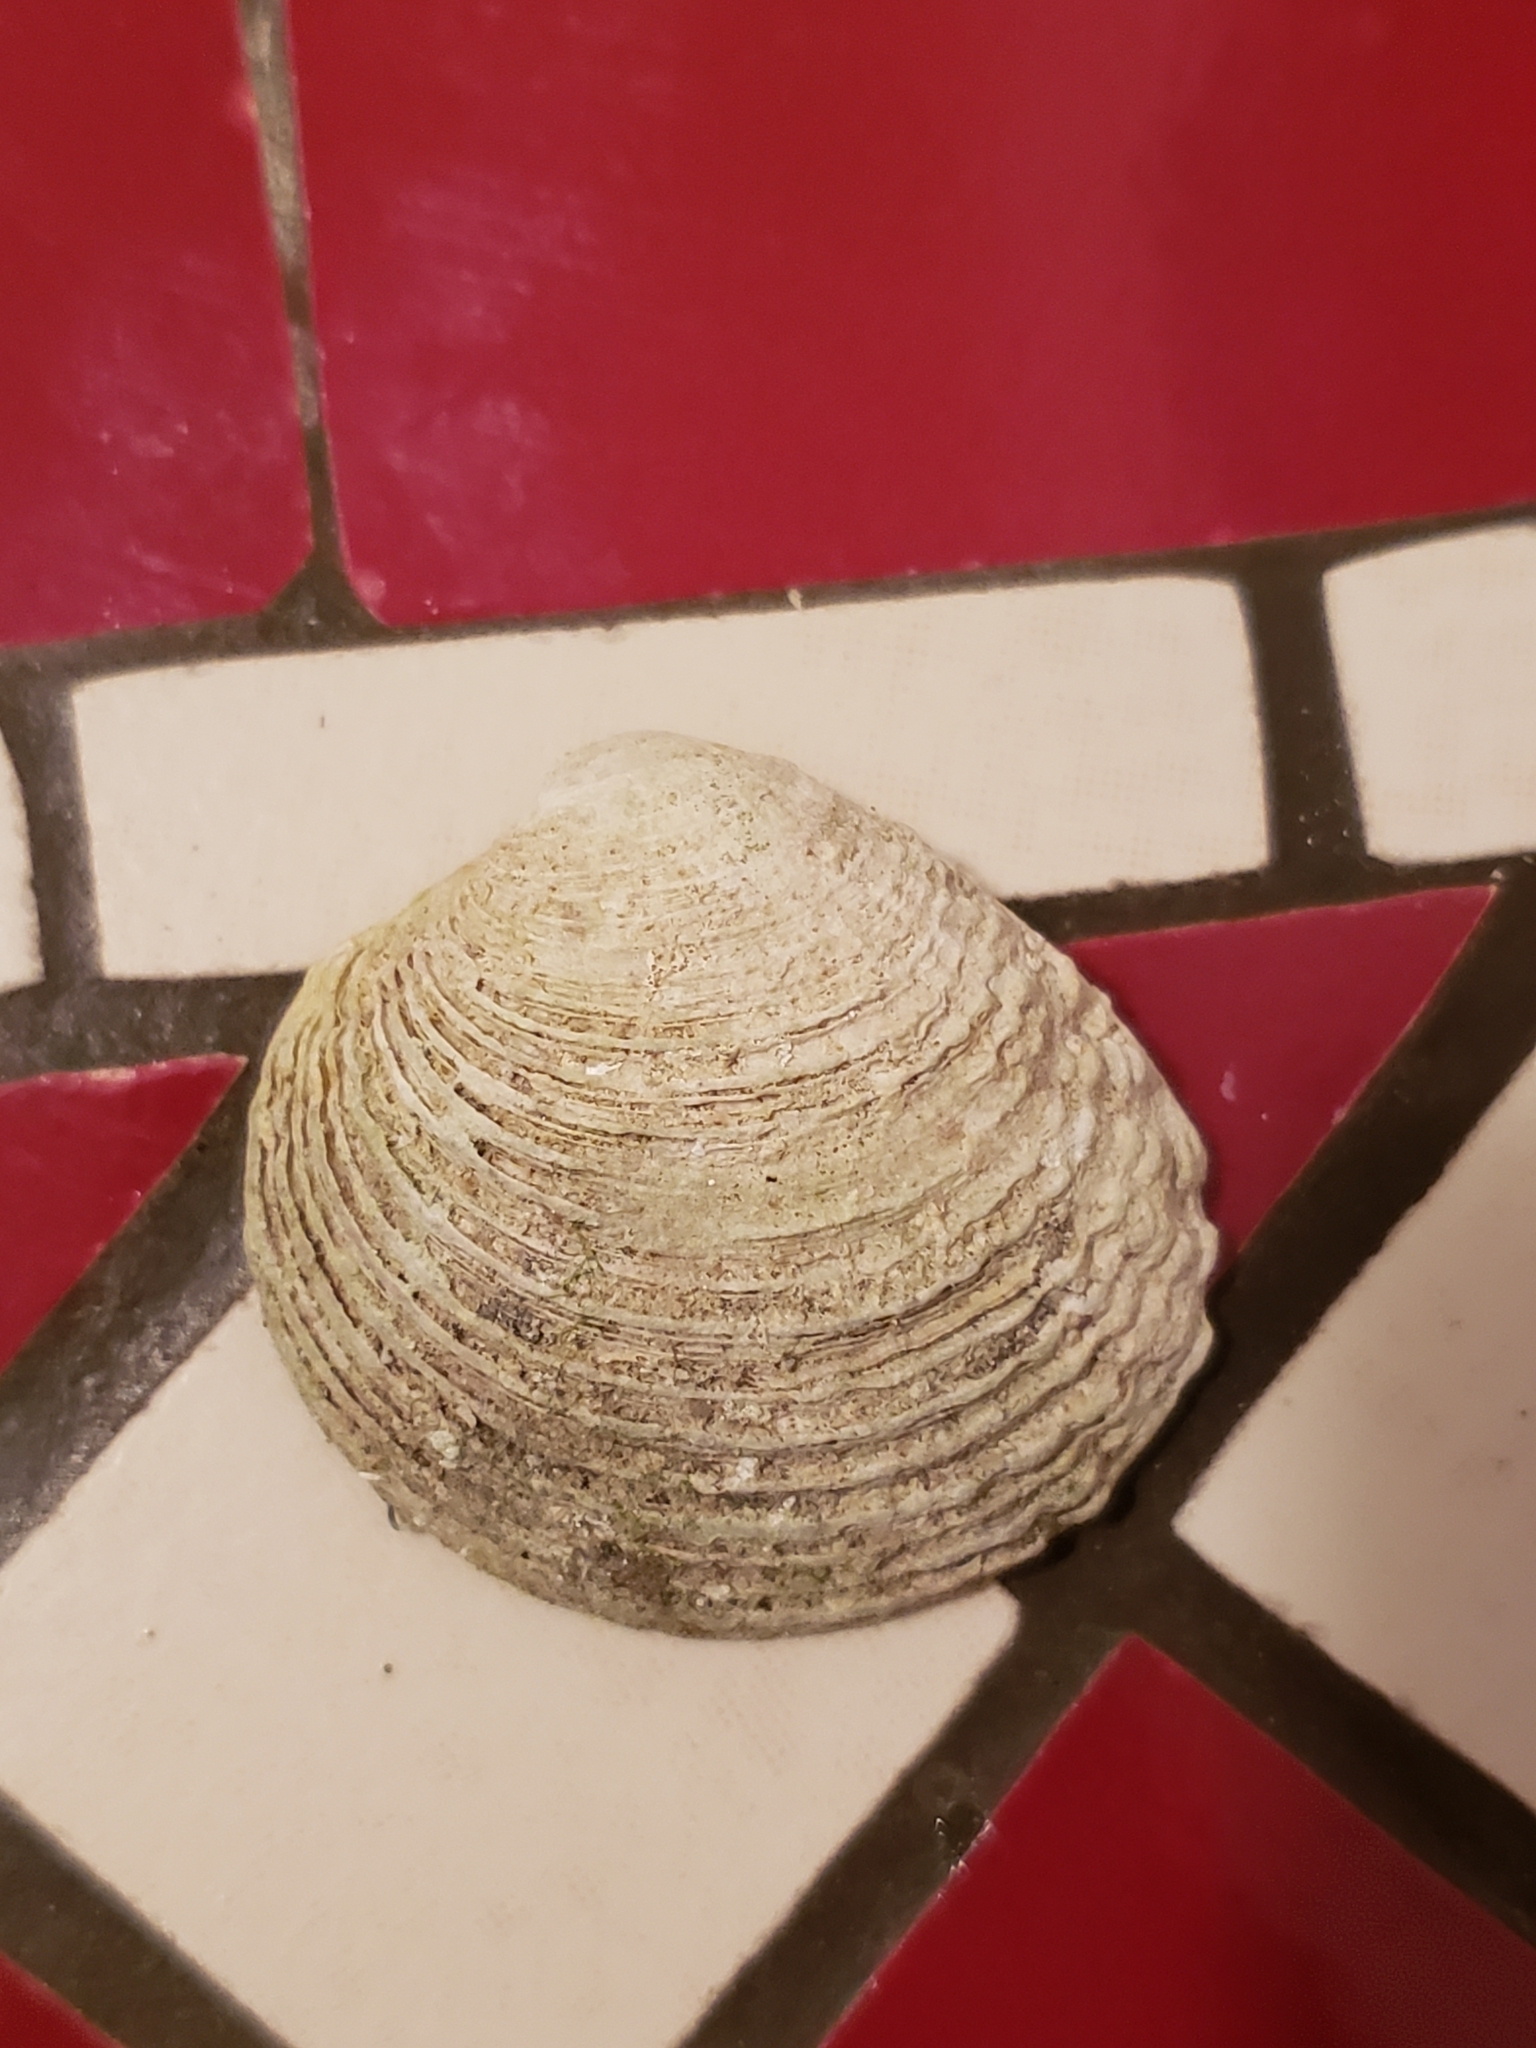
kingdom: Animalia
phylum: Mollusca
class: Bivalvia
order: Venerida
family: Veneridae
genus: Venus
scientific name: Venus verrucosa
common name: Warty venus
